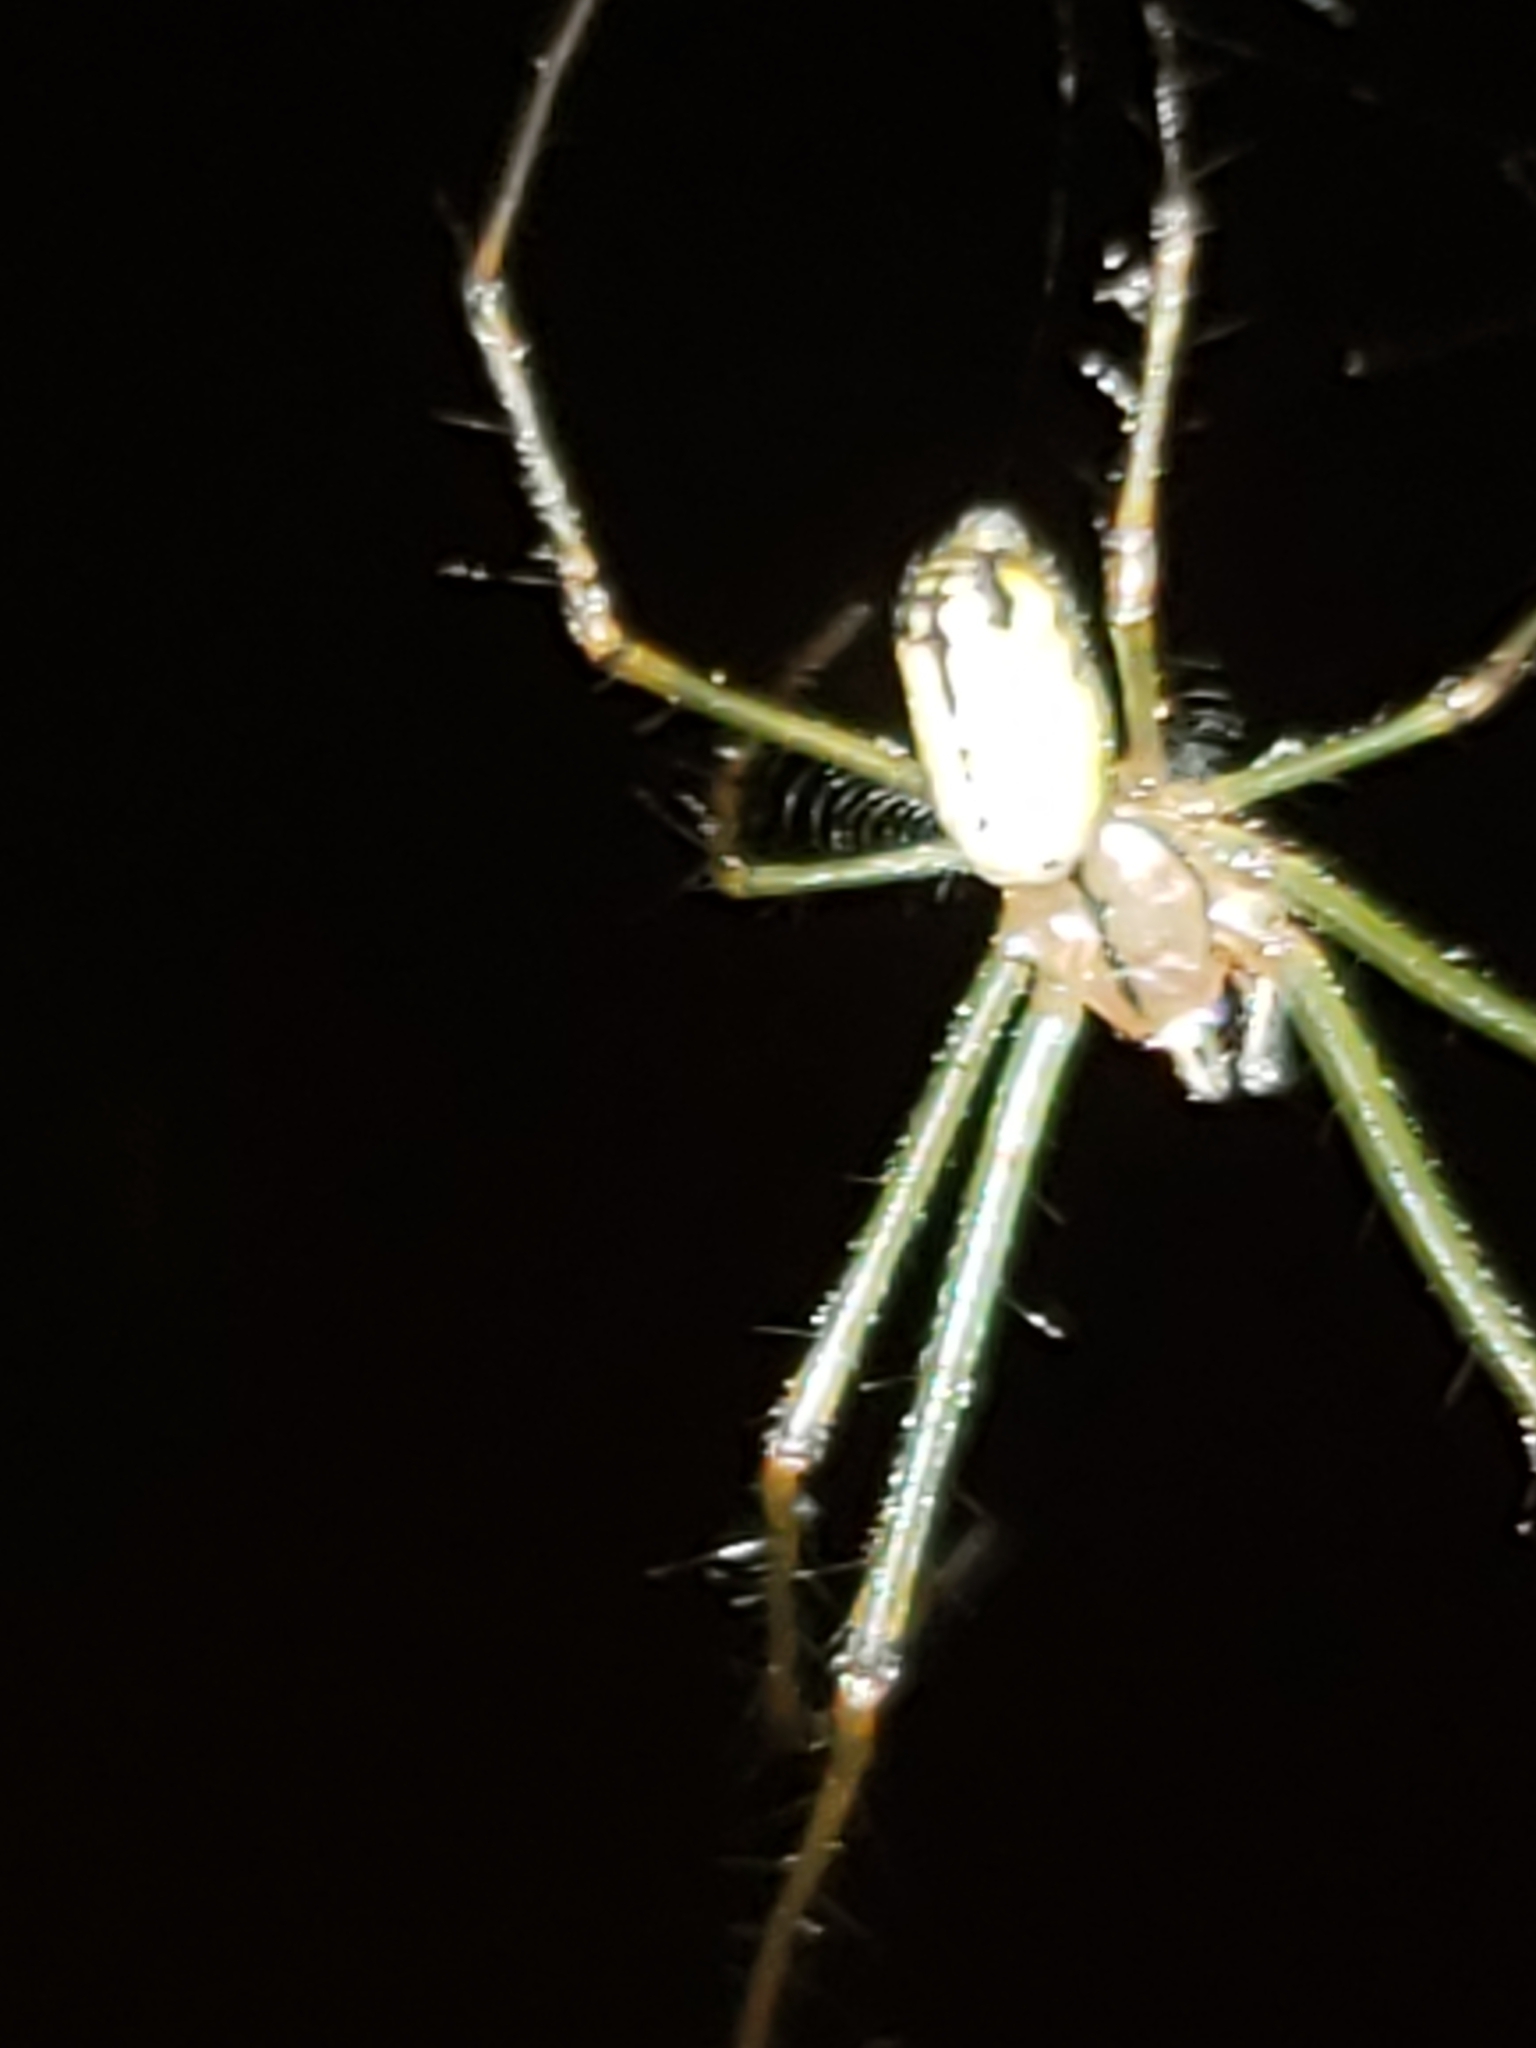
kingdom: Animalia
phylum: Arthropoda
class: Arachnida
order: Araneae
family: Tetragnathidae
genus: Leucauge
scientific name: Leucauge venusta
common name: Longjawed orb weavers
